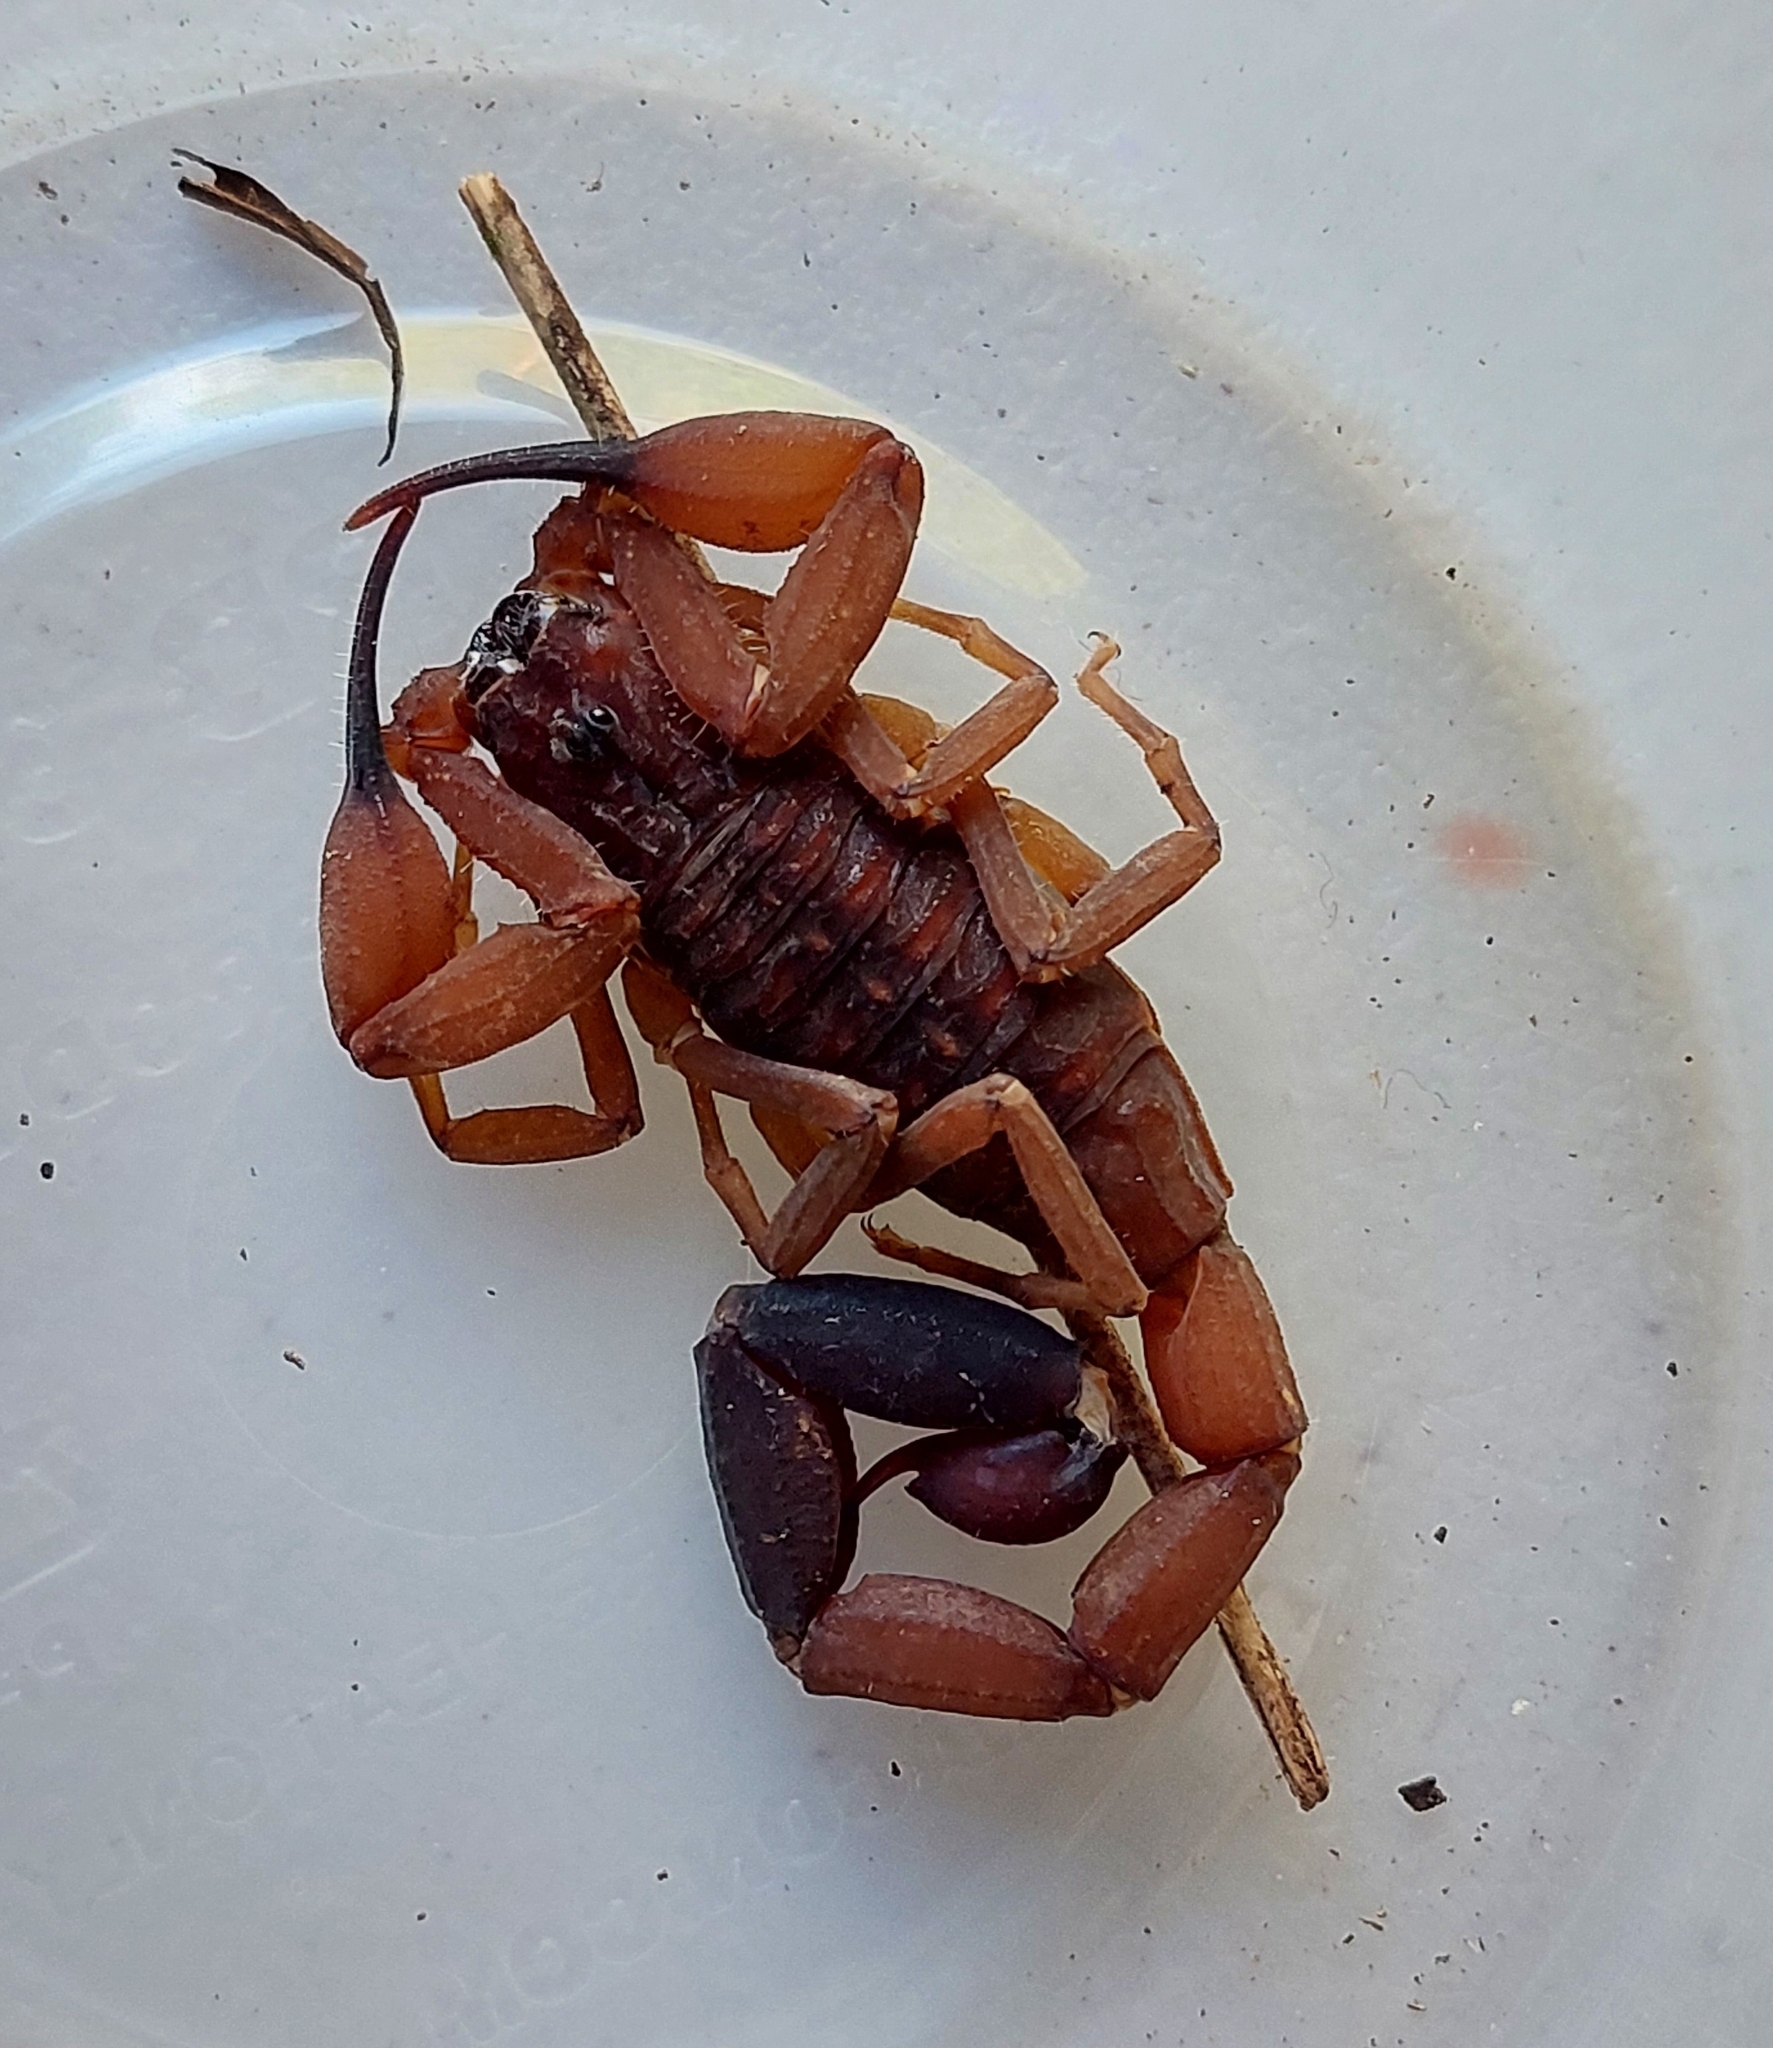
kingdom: Animalia
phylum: Arthropoda
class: Arachnida
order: Scorpiones
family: Buthidae
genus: Tityus
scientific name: Tityus cerroazul
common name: Scorpions
